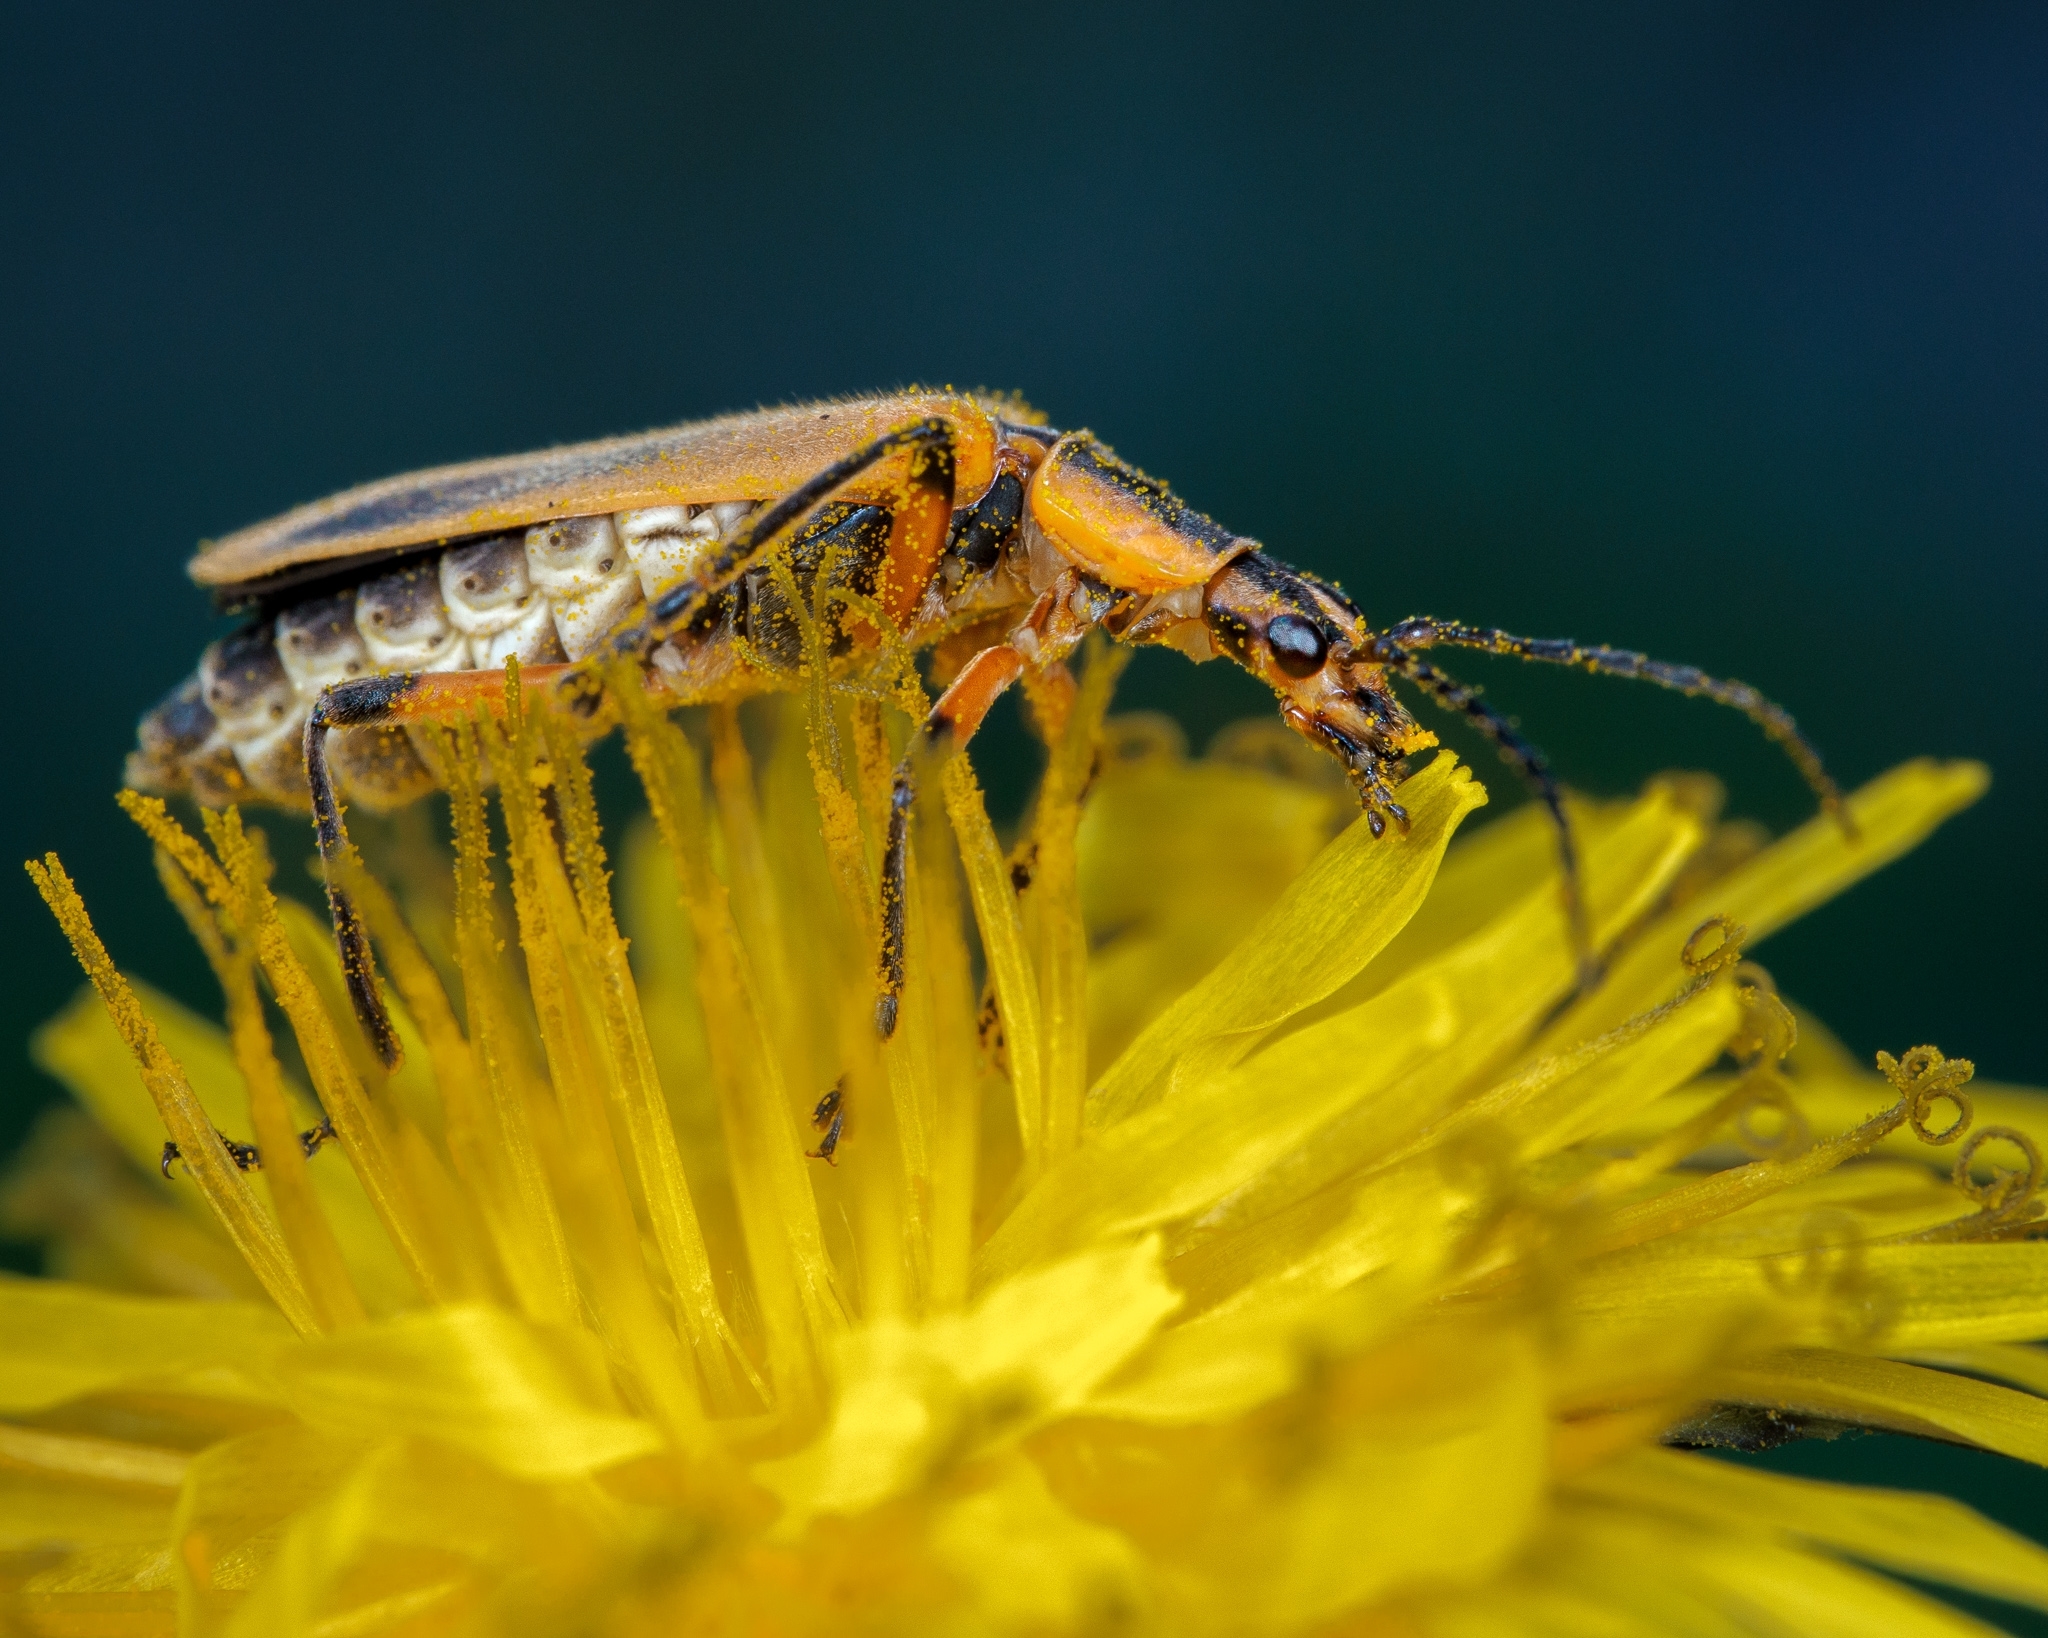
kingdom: Animalia
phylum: Arthropoda
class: Insecta
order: Coleoptera
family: Cantharidae
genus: Chauliognathus
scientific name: Chauliognathus marginatus
